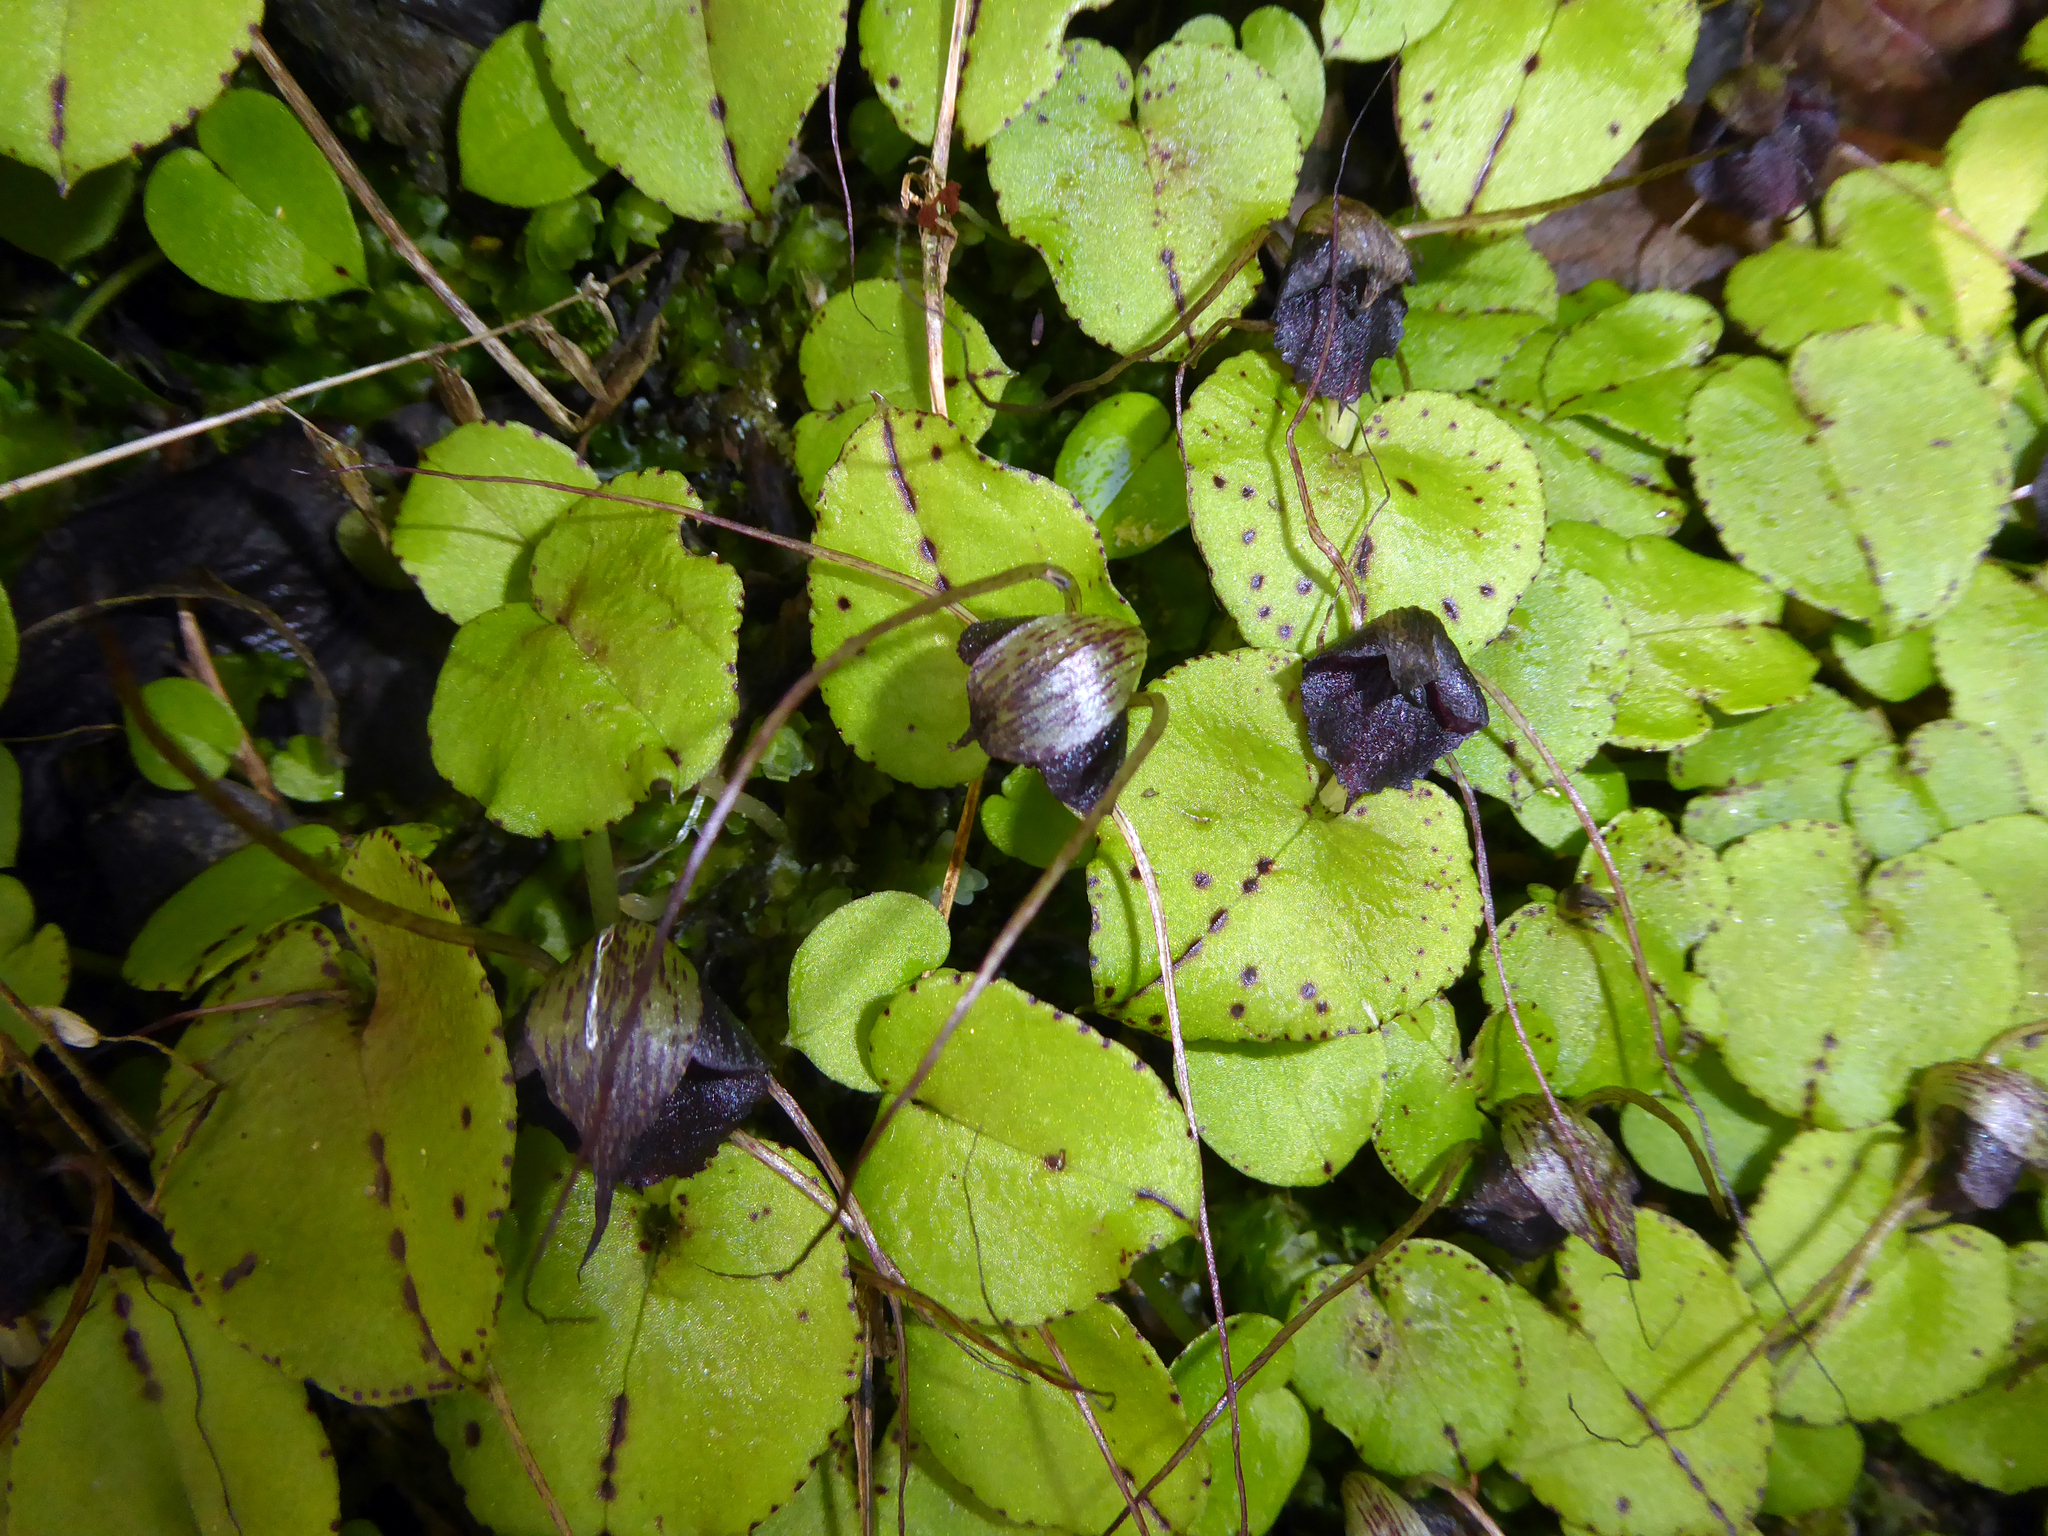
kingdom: Plantae
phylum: Tracheophyta
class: Liliopsida
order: Asparagales
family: Orchidaceae
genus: Corybas
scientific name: Corybas iridescens
